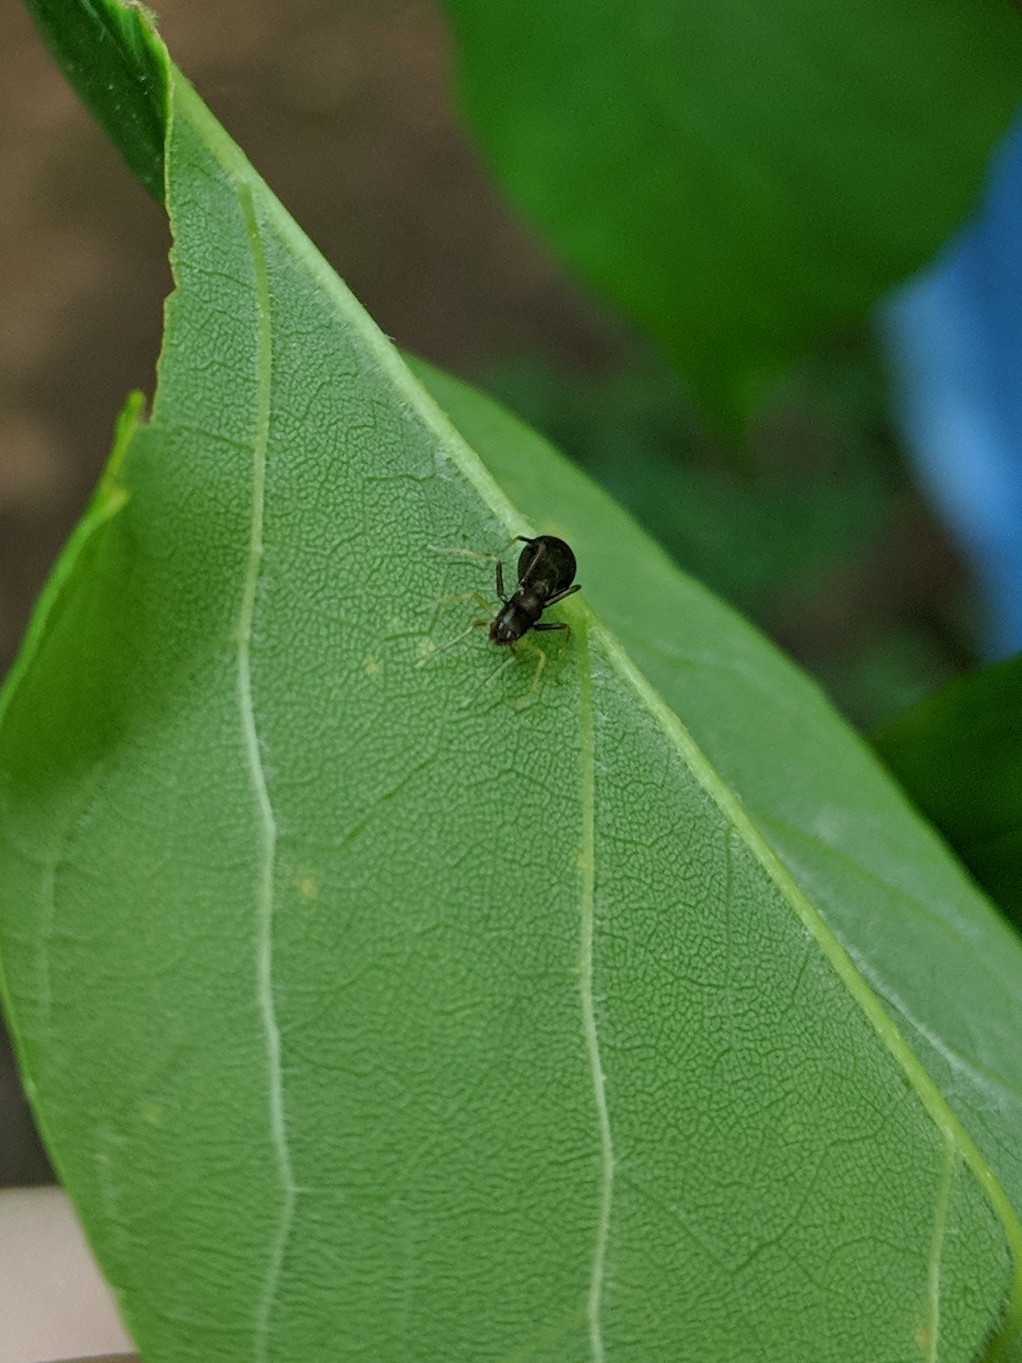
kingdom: Animalia
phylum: Arthropoda
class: Arachnida
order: Araneae
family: Salticidae
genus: Synemosyna
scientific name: Synemosyna formica
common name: Slender ant-mimic jumping spider
